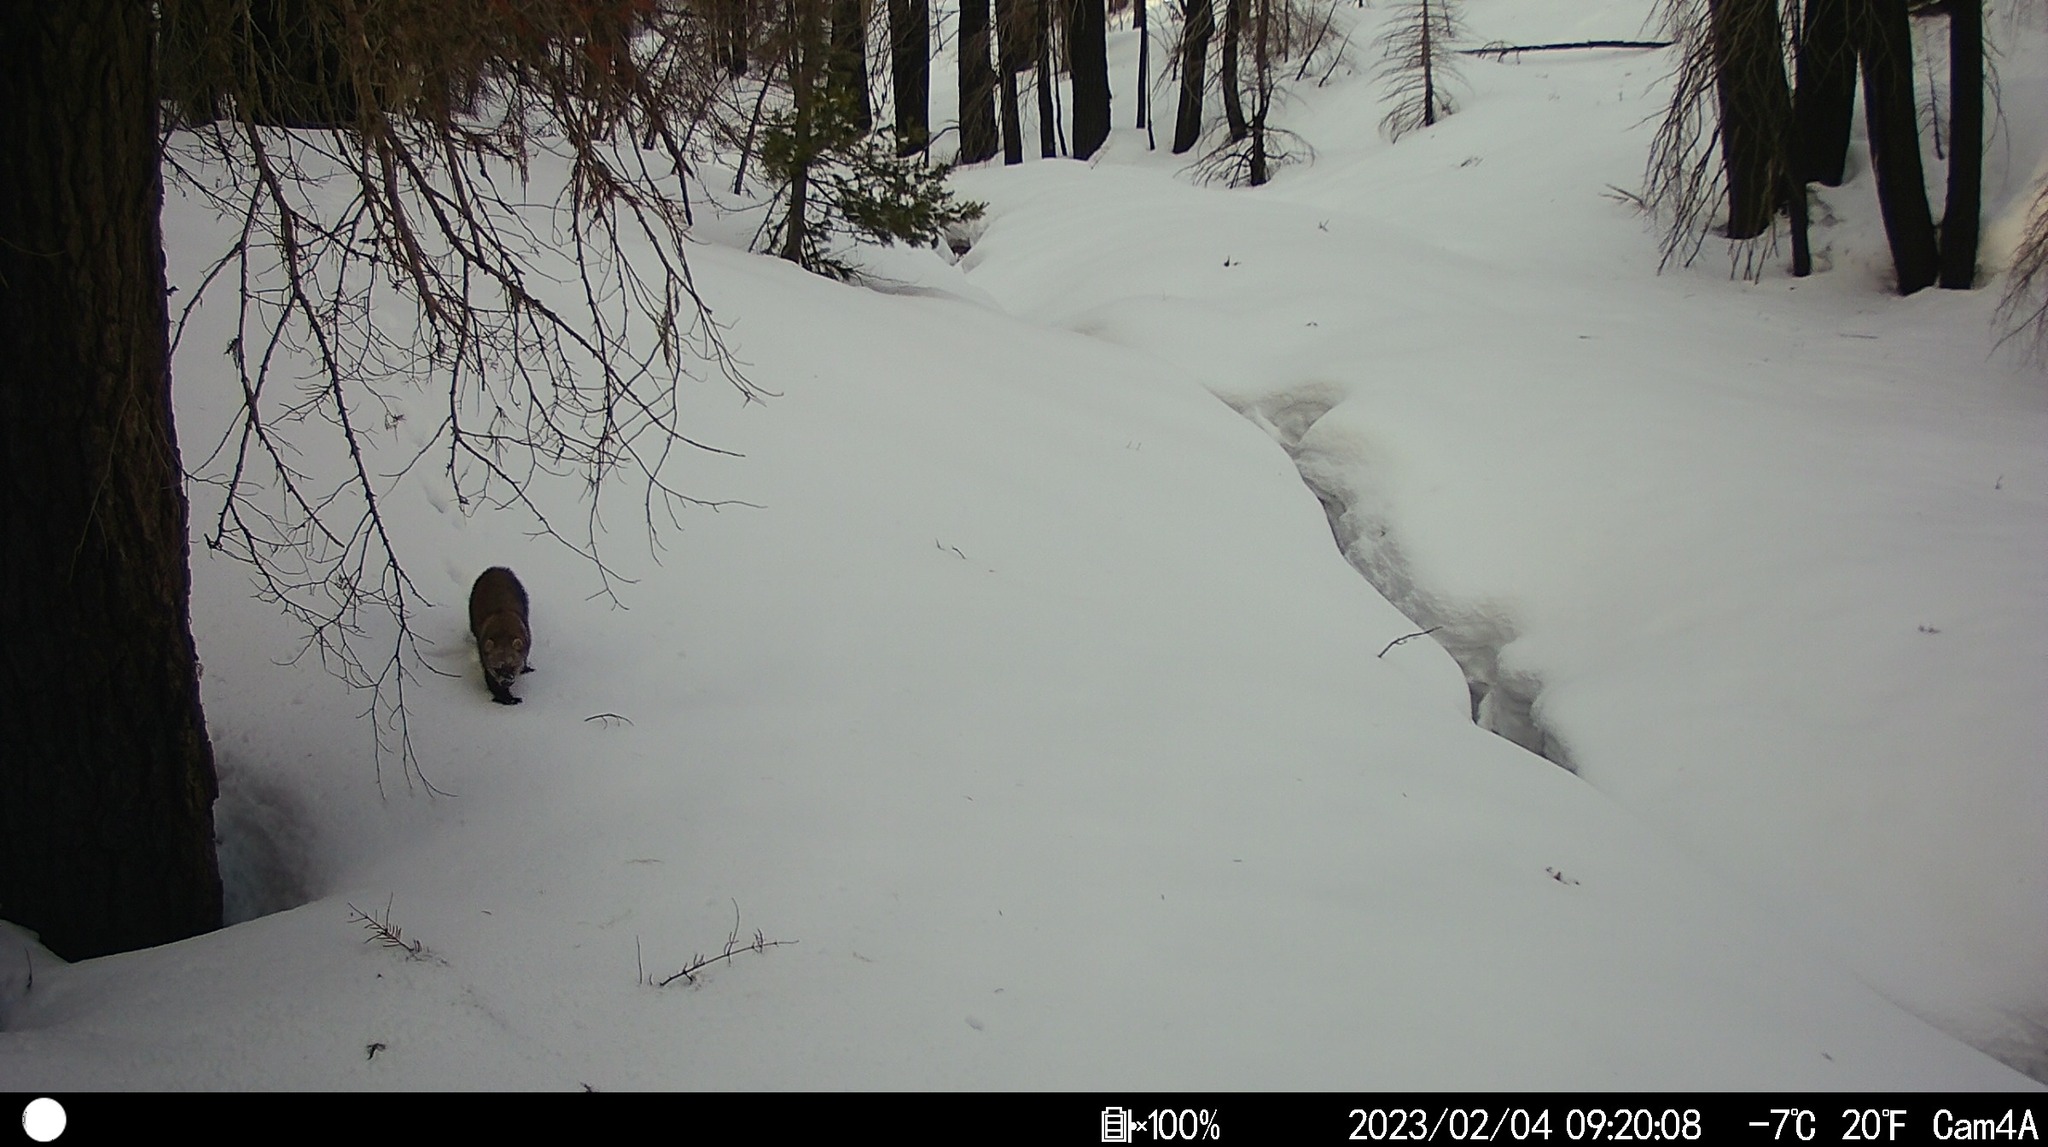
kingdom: Animalia
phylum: Chordata
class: Mammalia
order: Carnivora
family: Mustelidae
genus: Pekania
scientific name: Pekania pennanti
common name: Fisher
